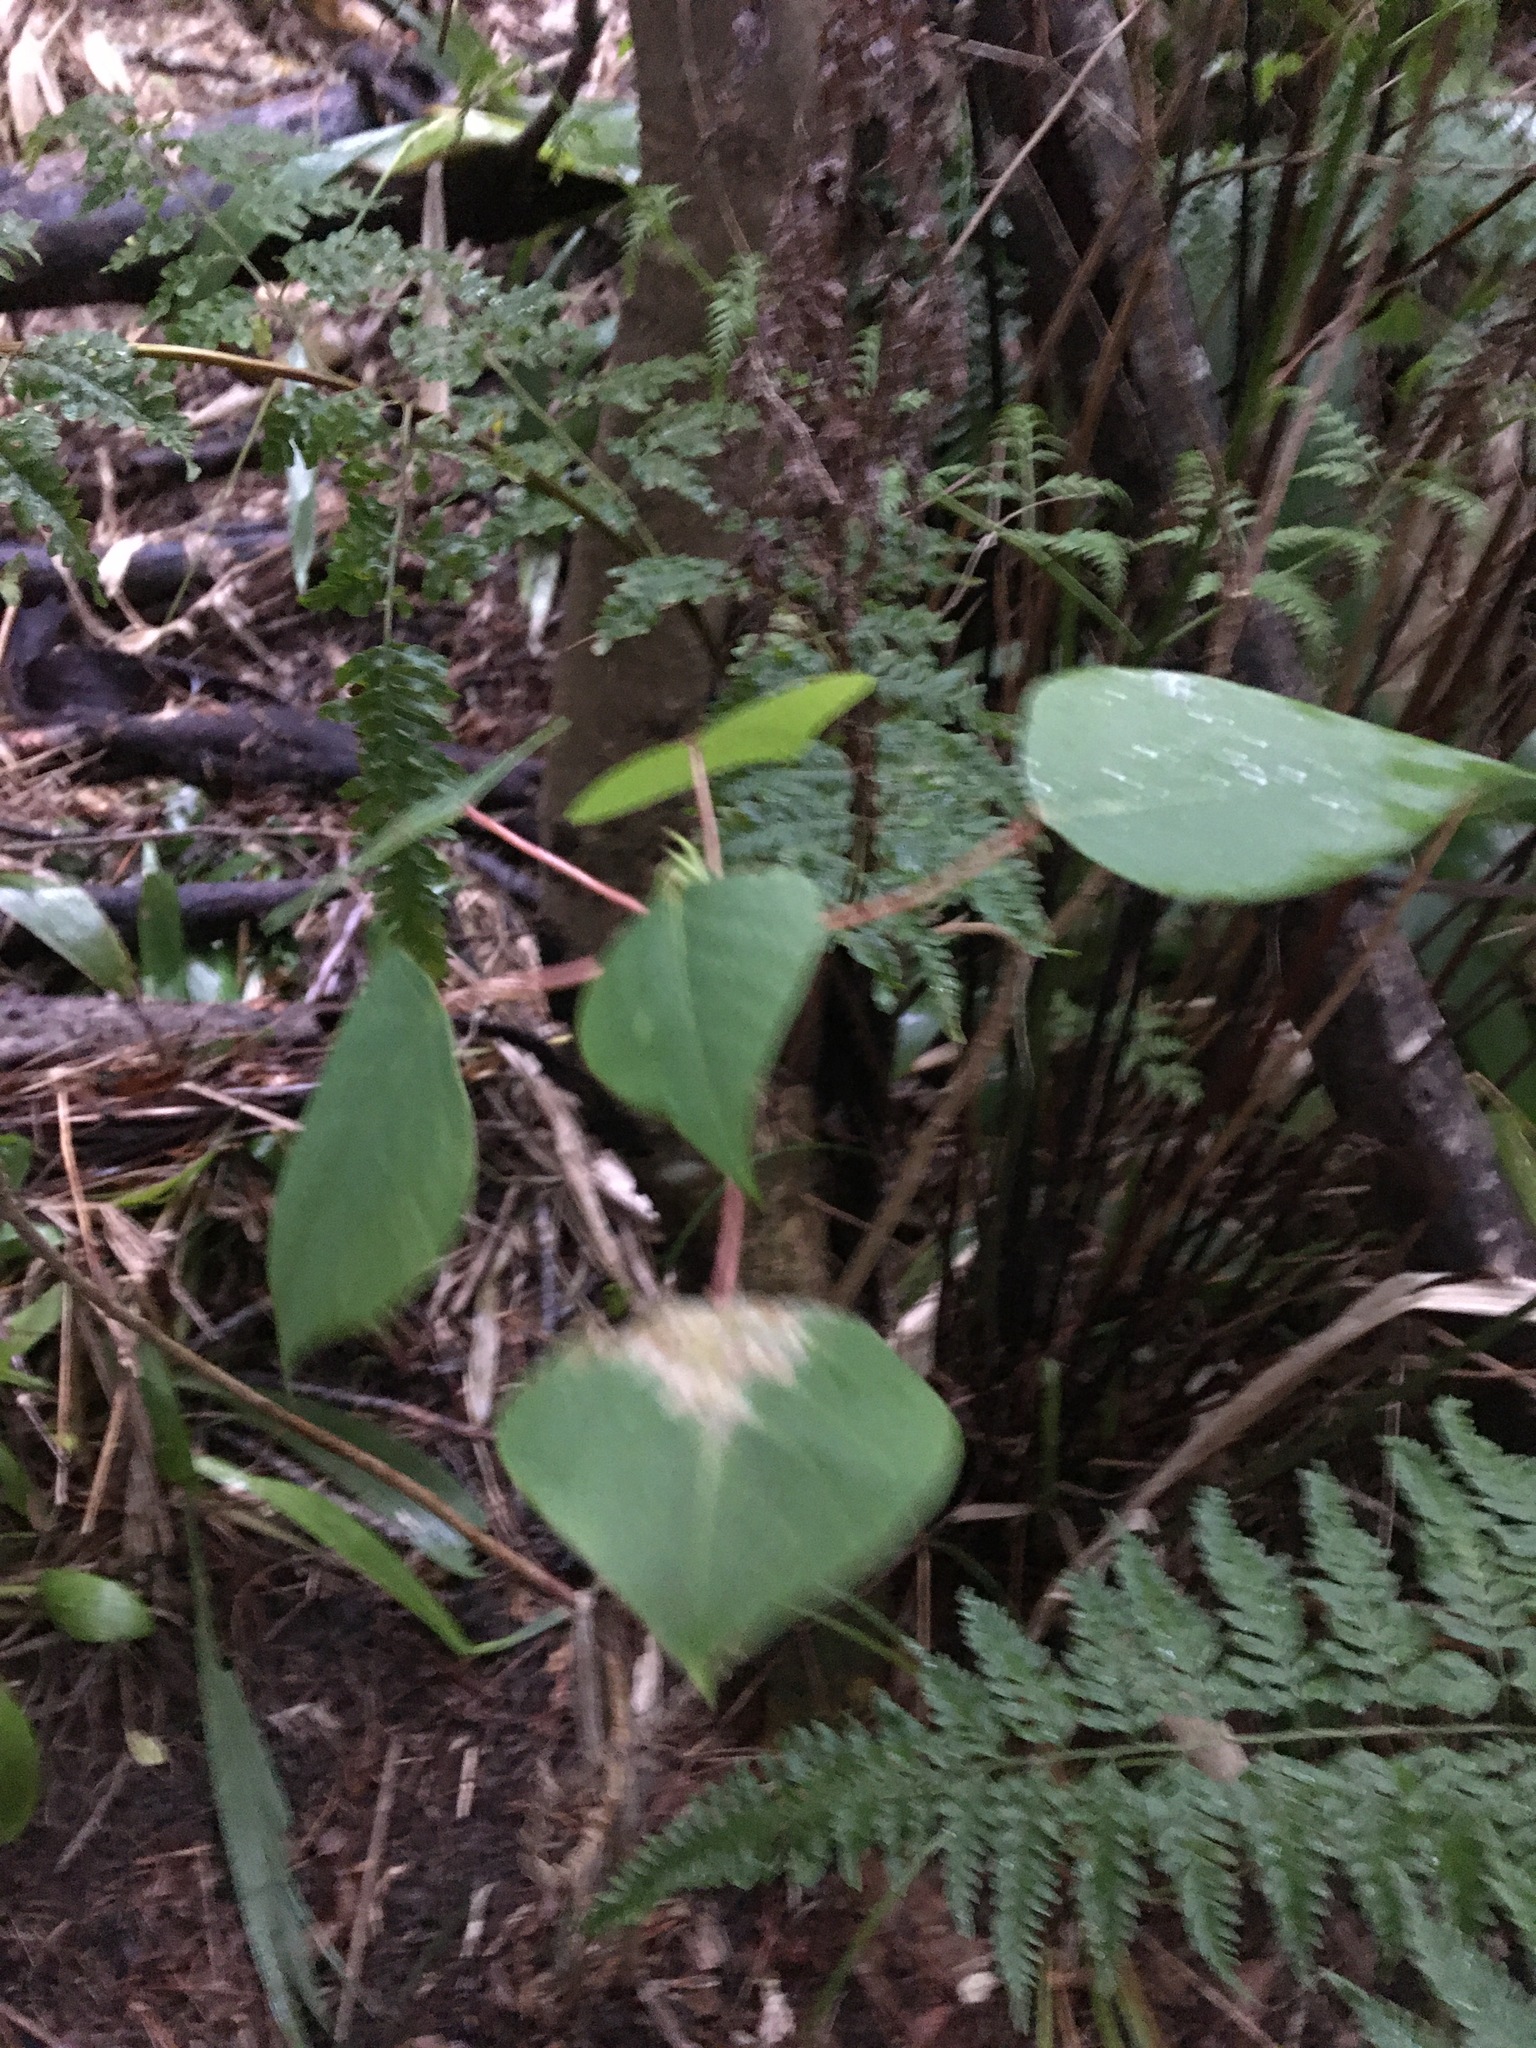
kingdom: Plantae
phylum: Tracheophyta
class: Magnoliopsida
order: Malpighiales
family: Euphorbiaceae
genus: Homalanthus
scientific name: Homalanthus populifolius
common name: Queensland poplar
